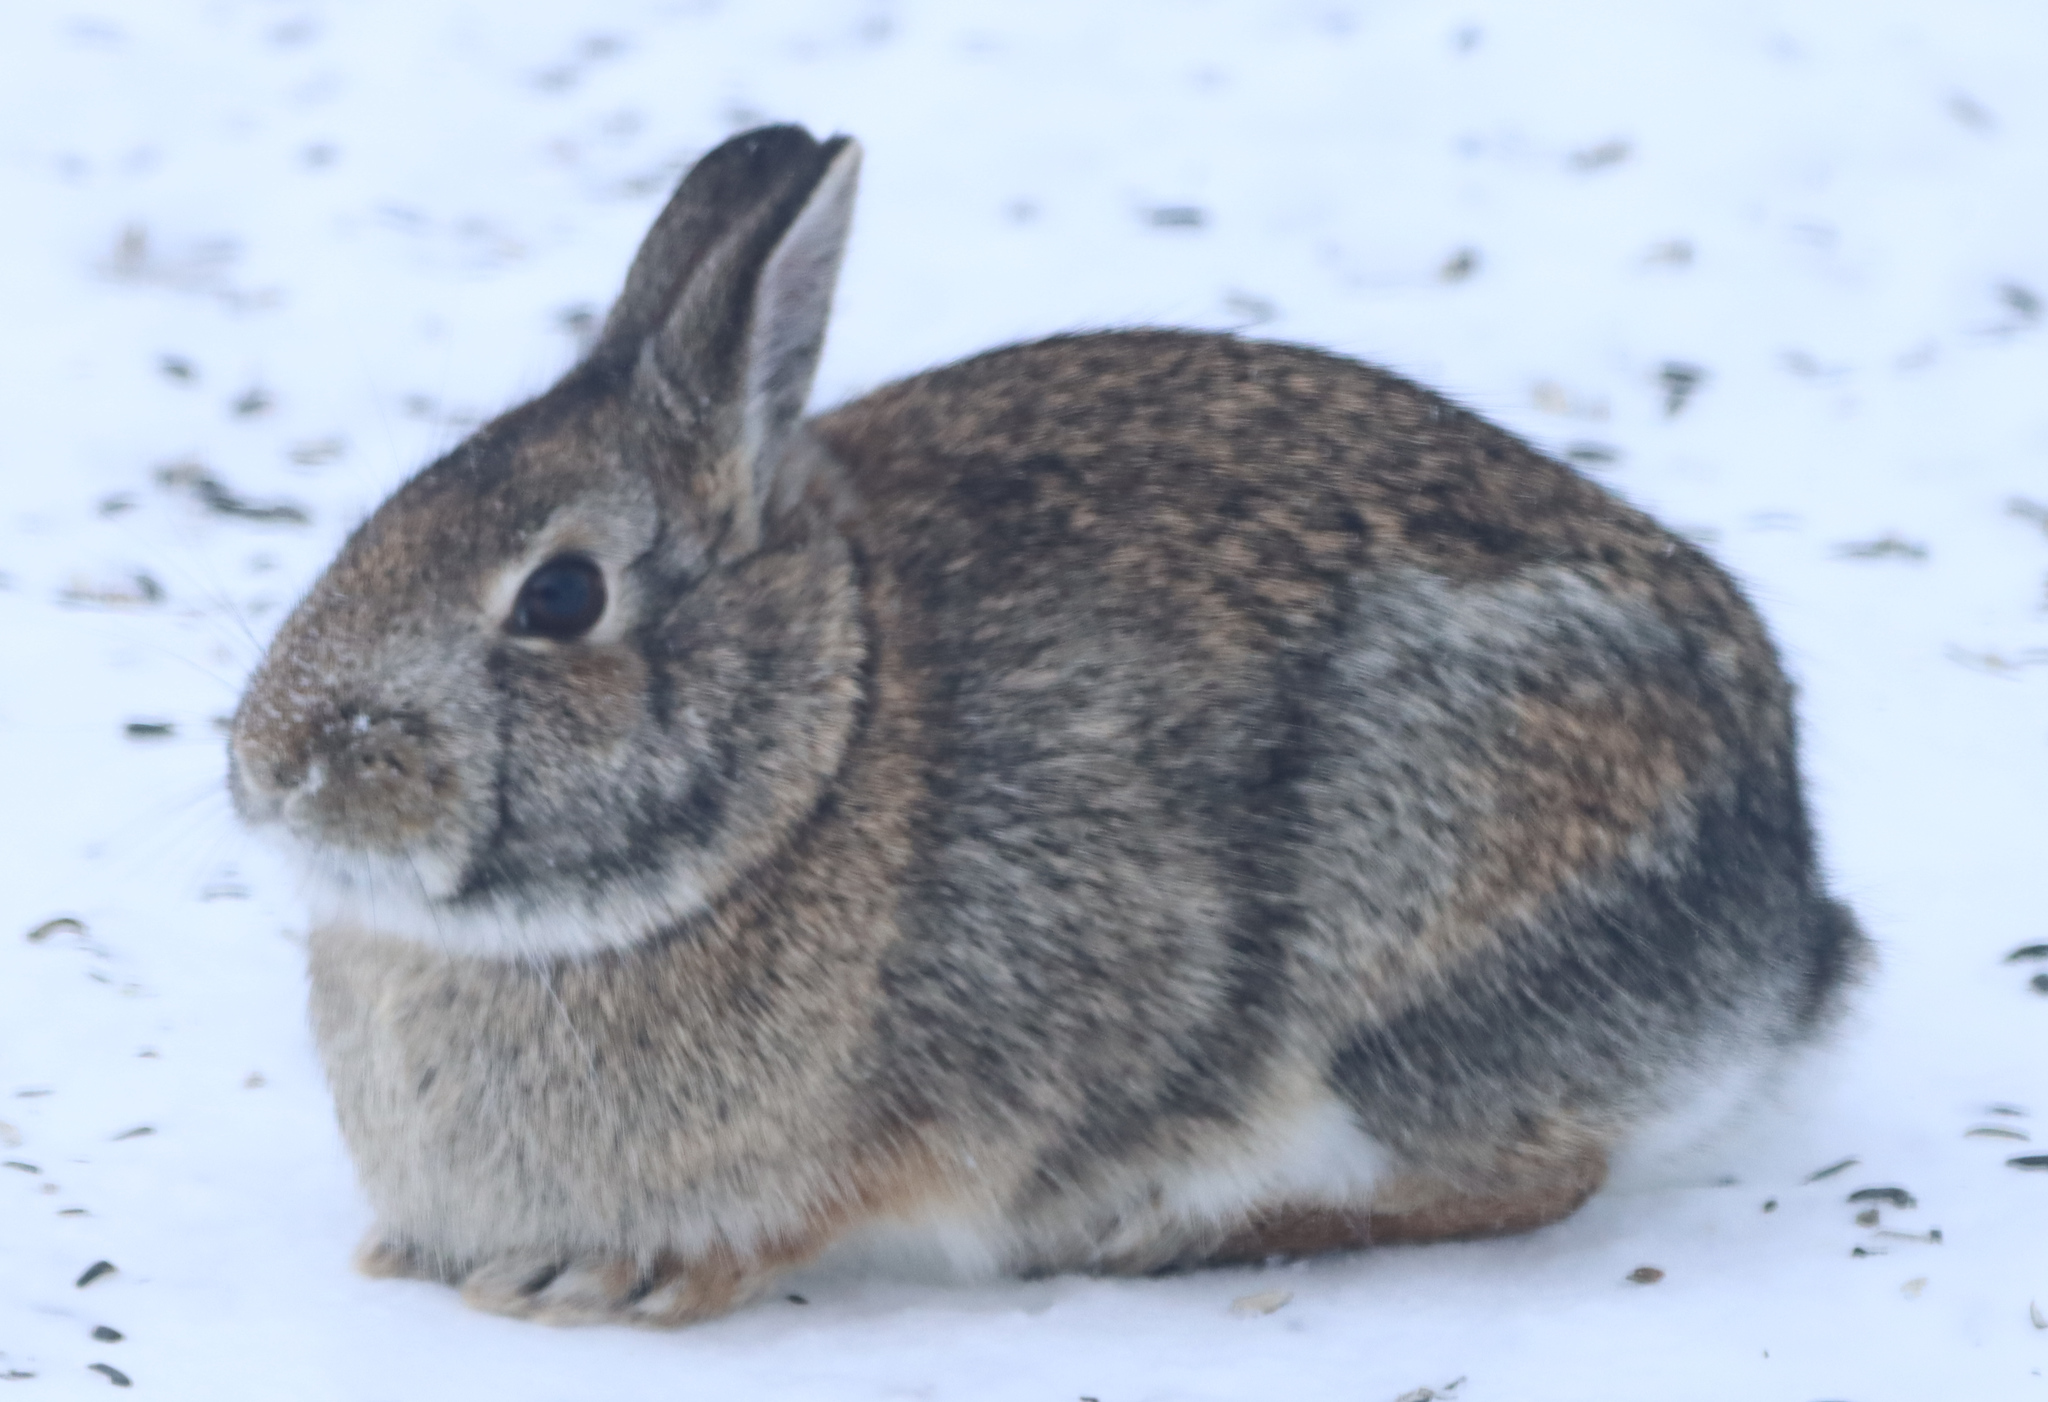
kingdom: Animalia
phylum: Chordata
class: Mammalia
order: Lagomorpha
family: Leporidae
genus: Sylvilagus
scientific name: Sylvilagus floridanus
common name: Eastern cottontail
